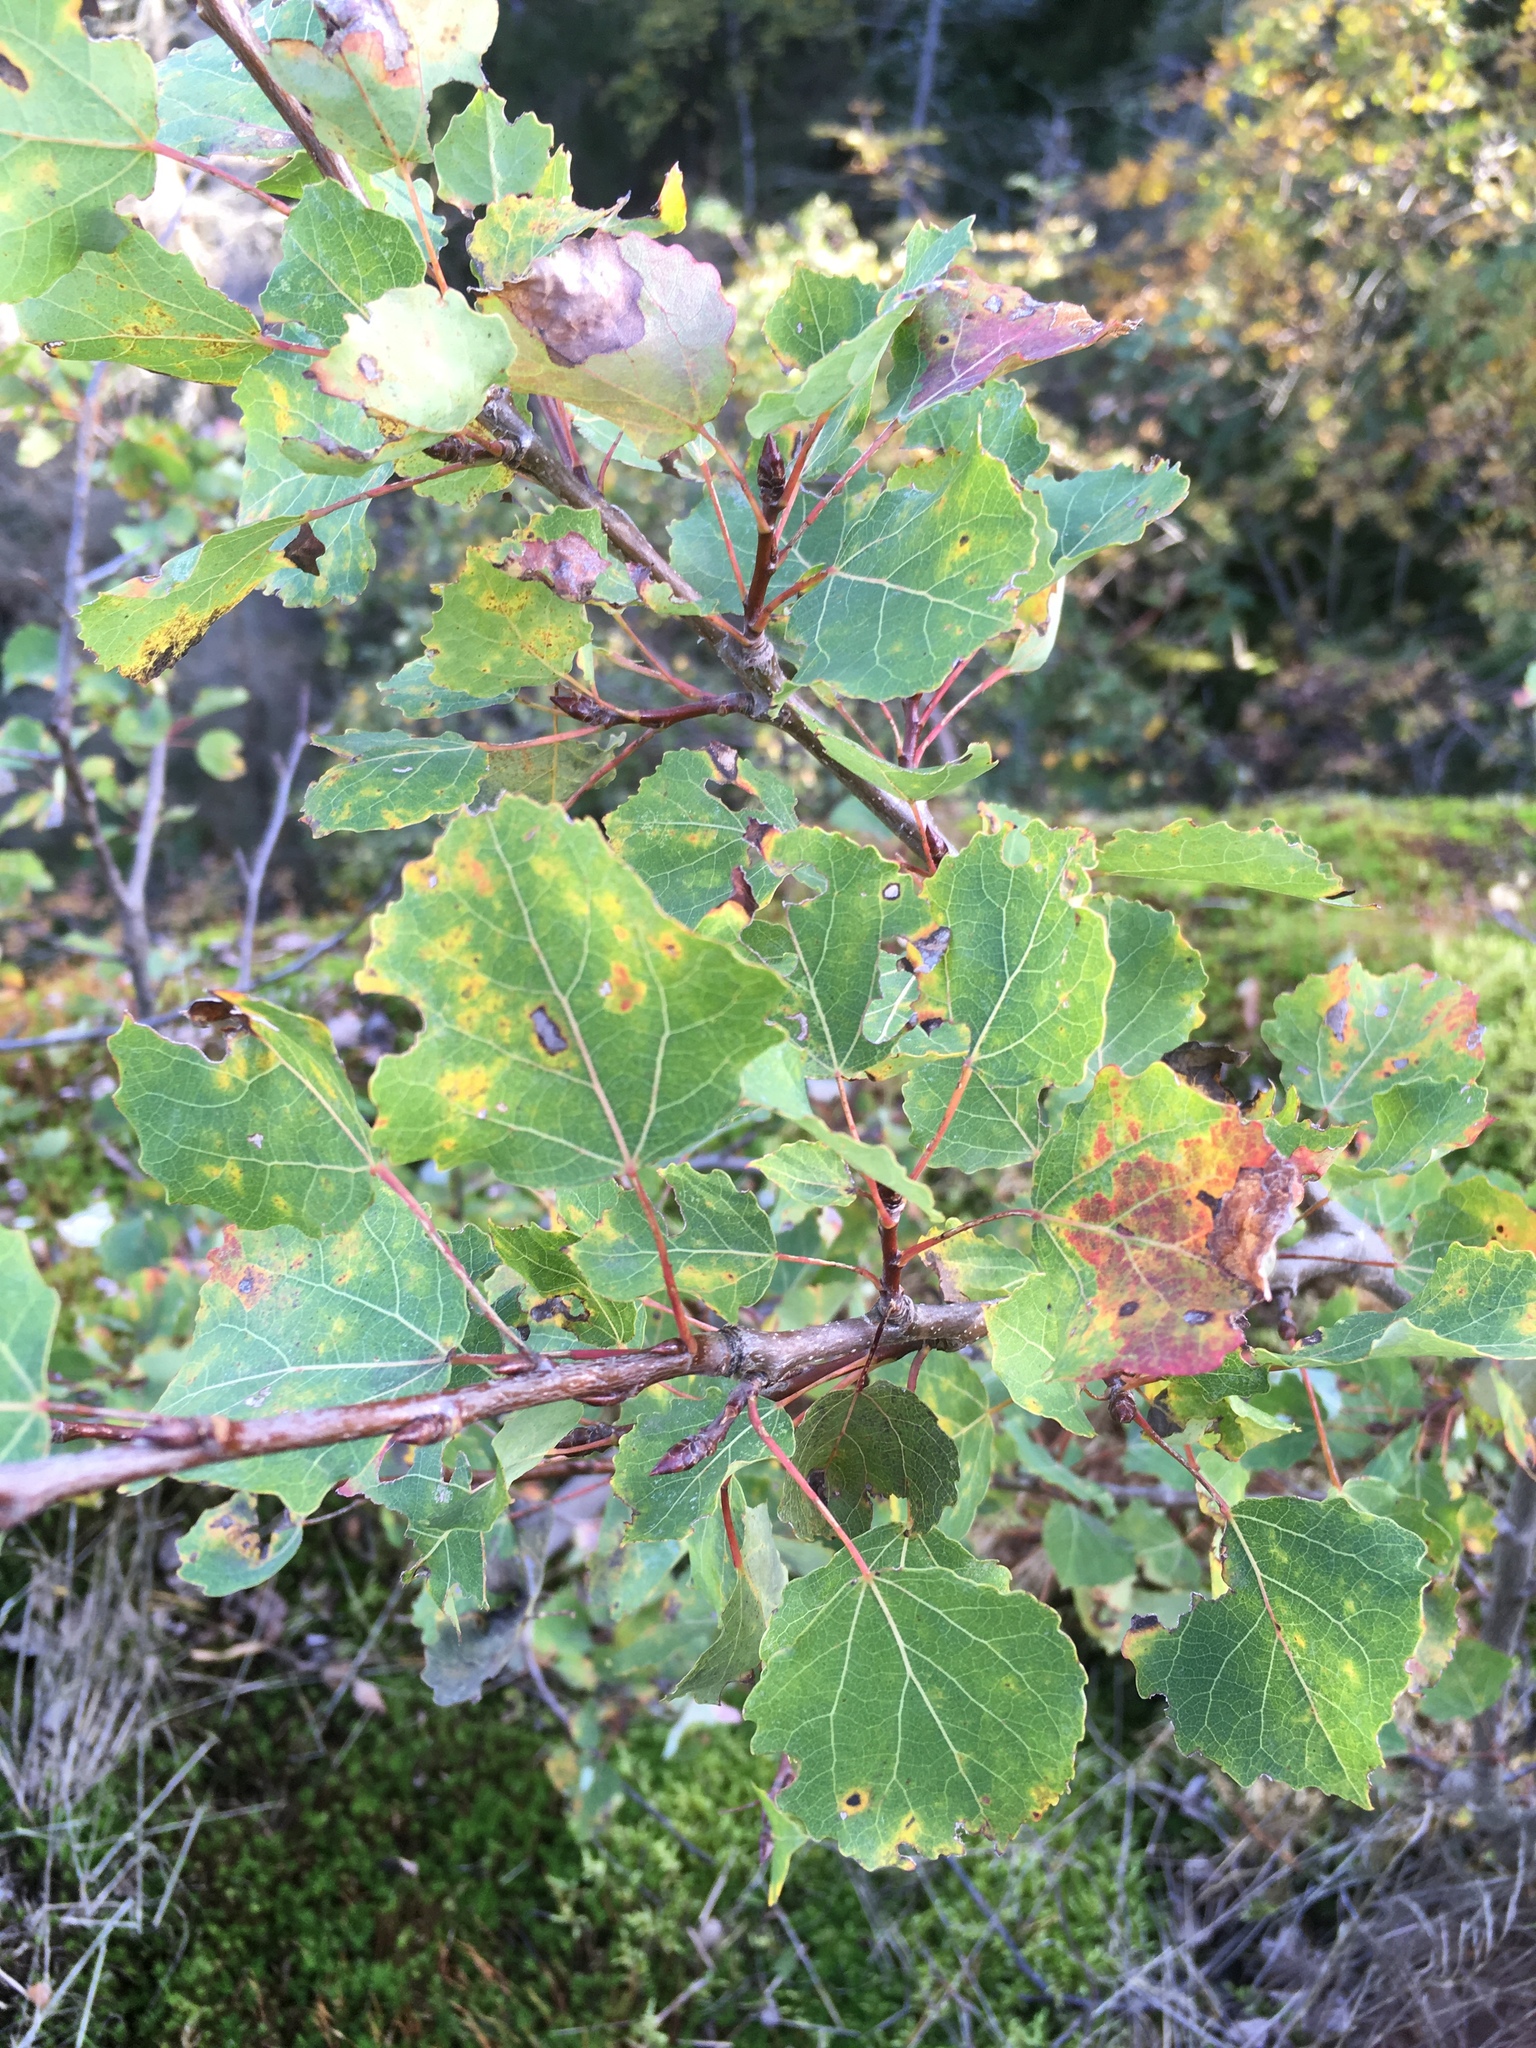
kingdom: Plantae
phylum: Tracheophyta
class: Magnoliopsida
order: Malpighiales
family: Salicaceae
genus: Populus
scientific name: Populus tremula
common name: European aspen
